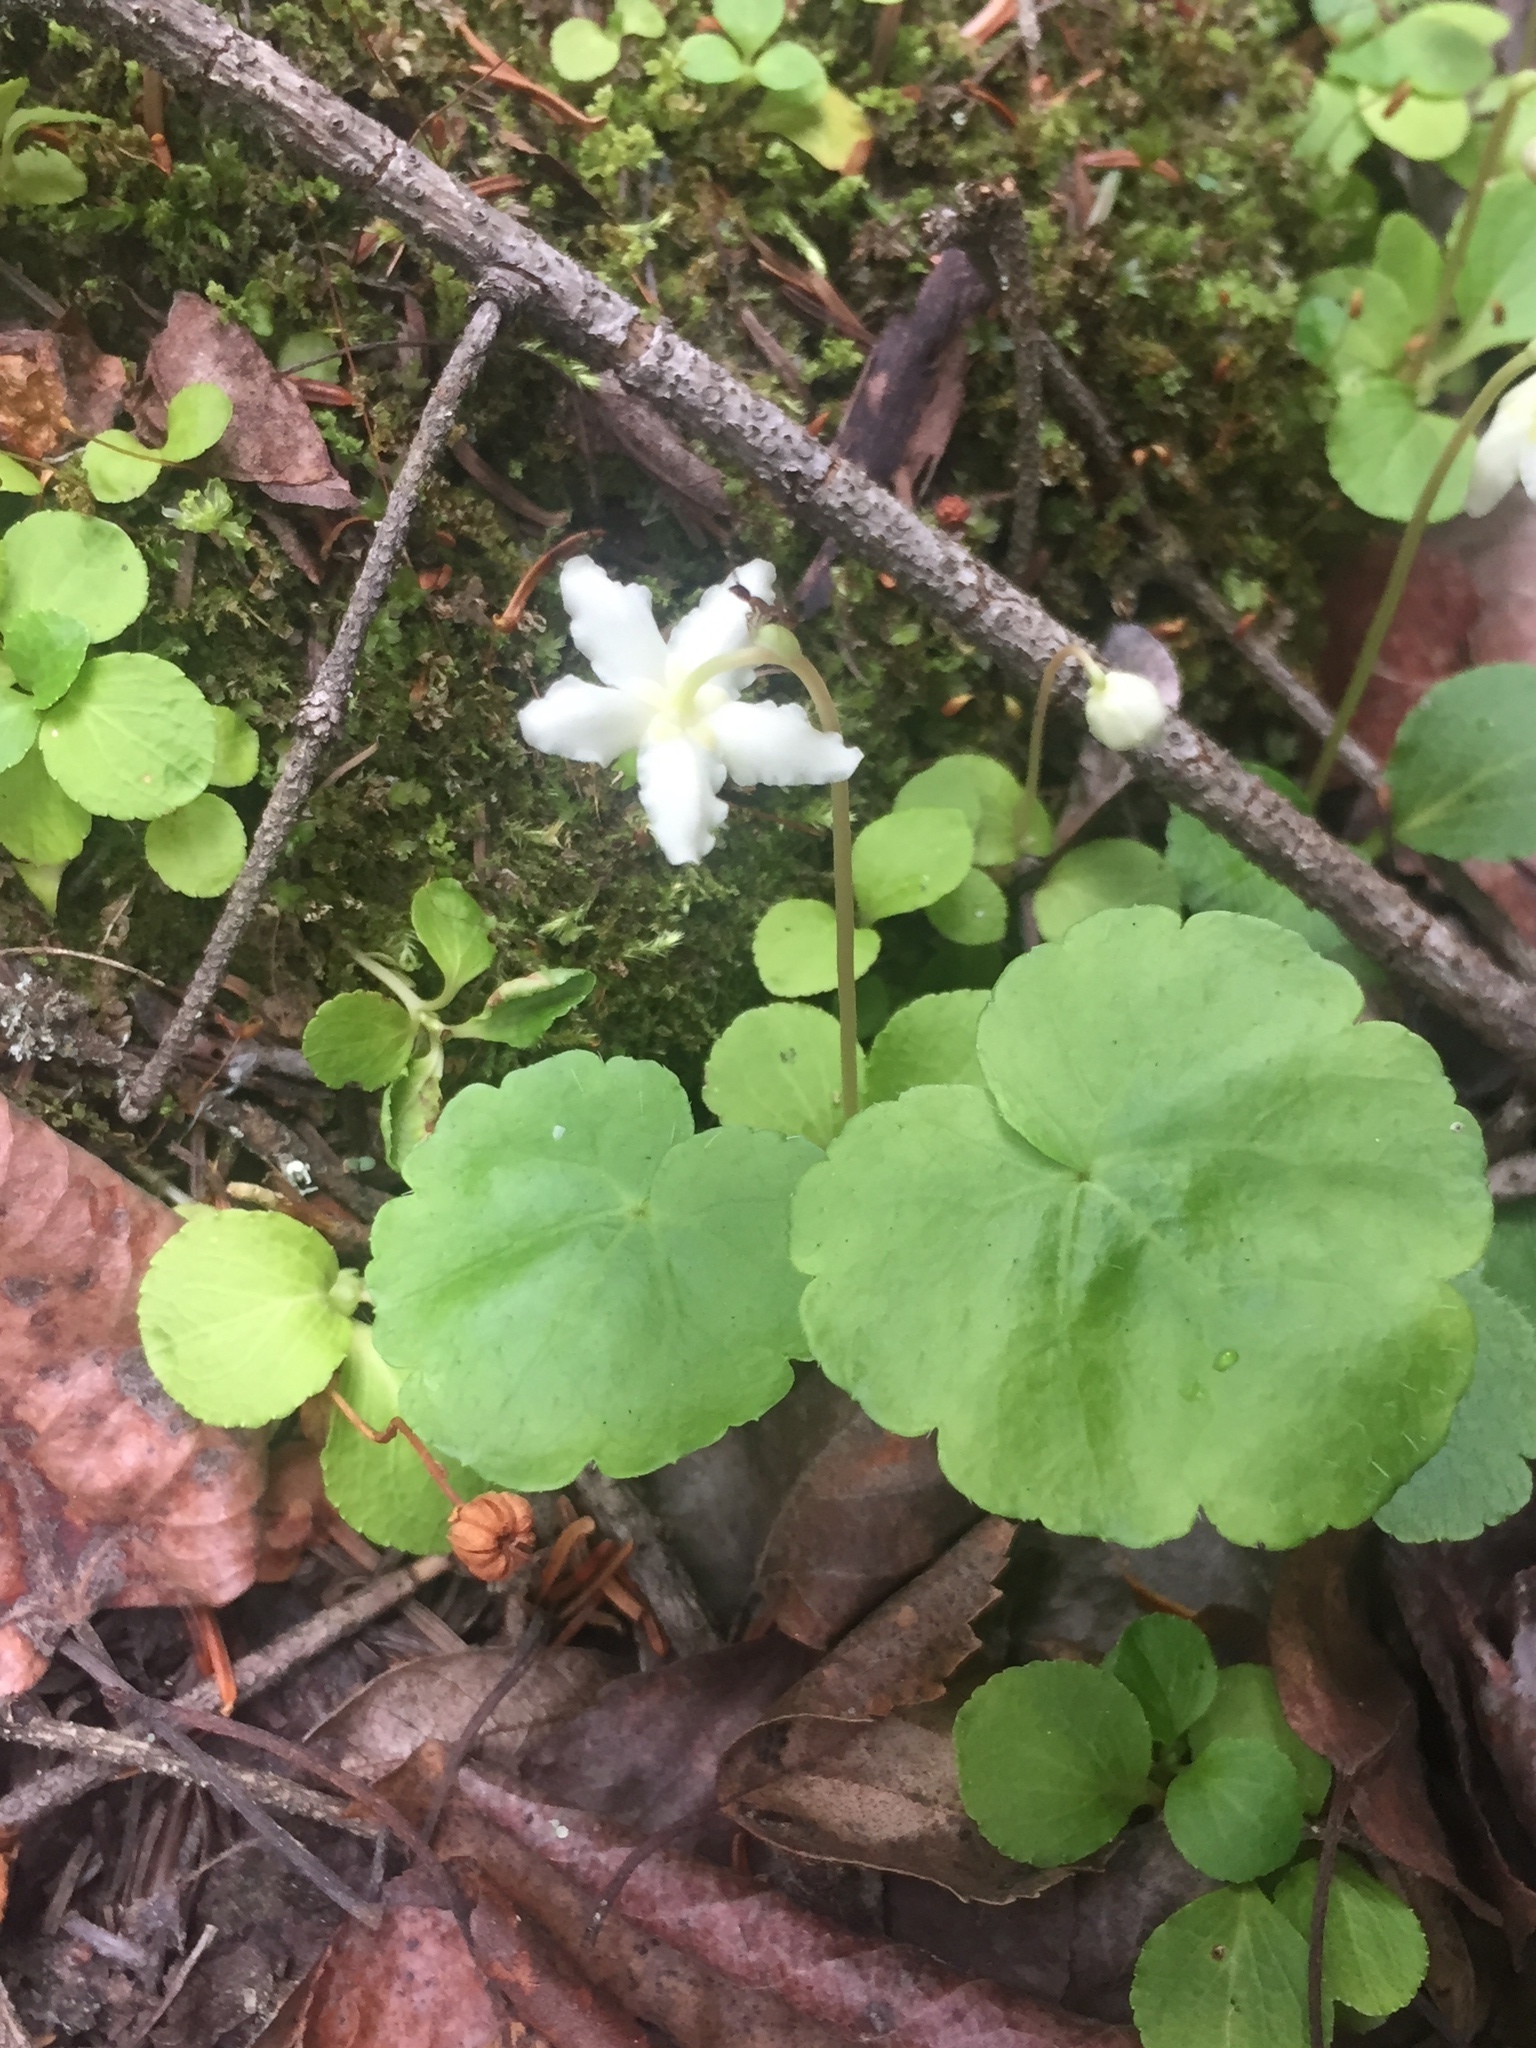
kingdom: Plantae
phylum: Tracheophyta
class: Magnoliopsida
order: Ericales
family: Ericaceae
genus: Moneses
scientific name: Moneses uniflora
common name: One-flowered wintergreen
